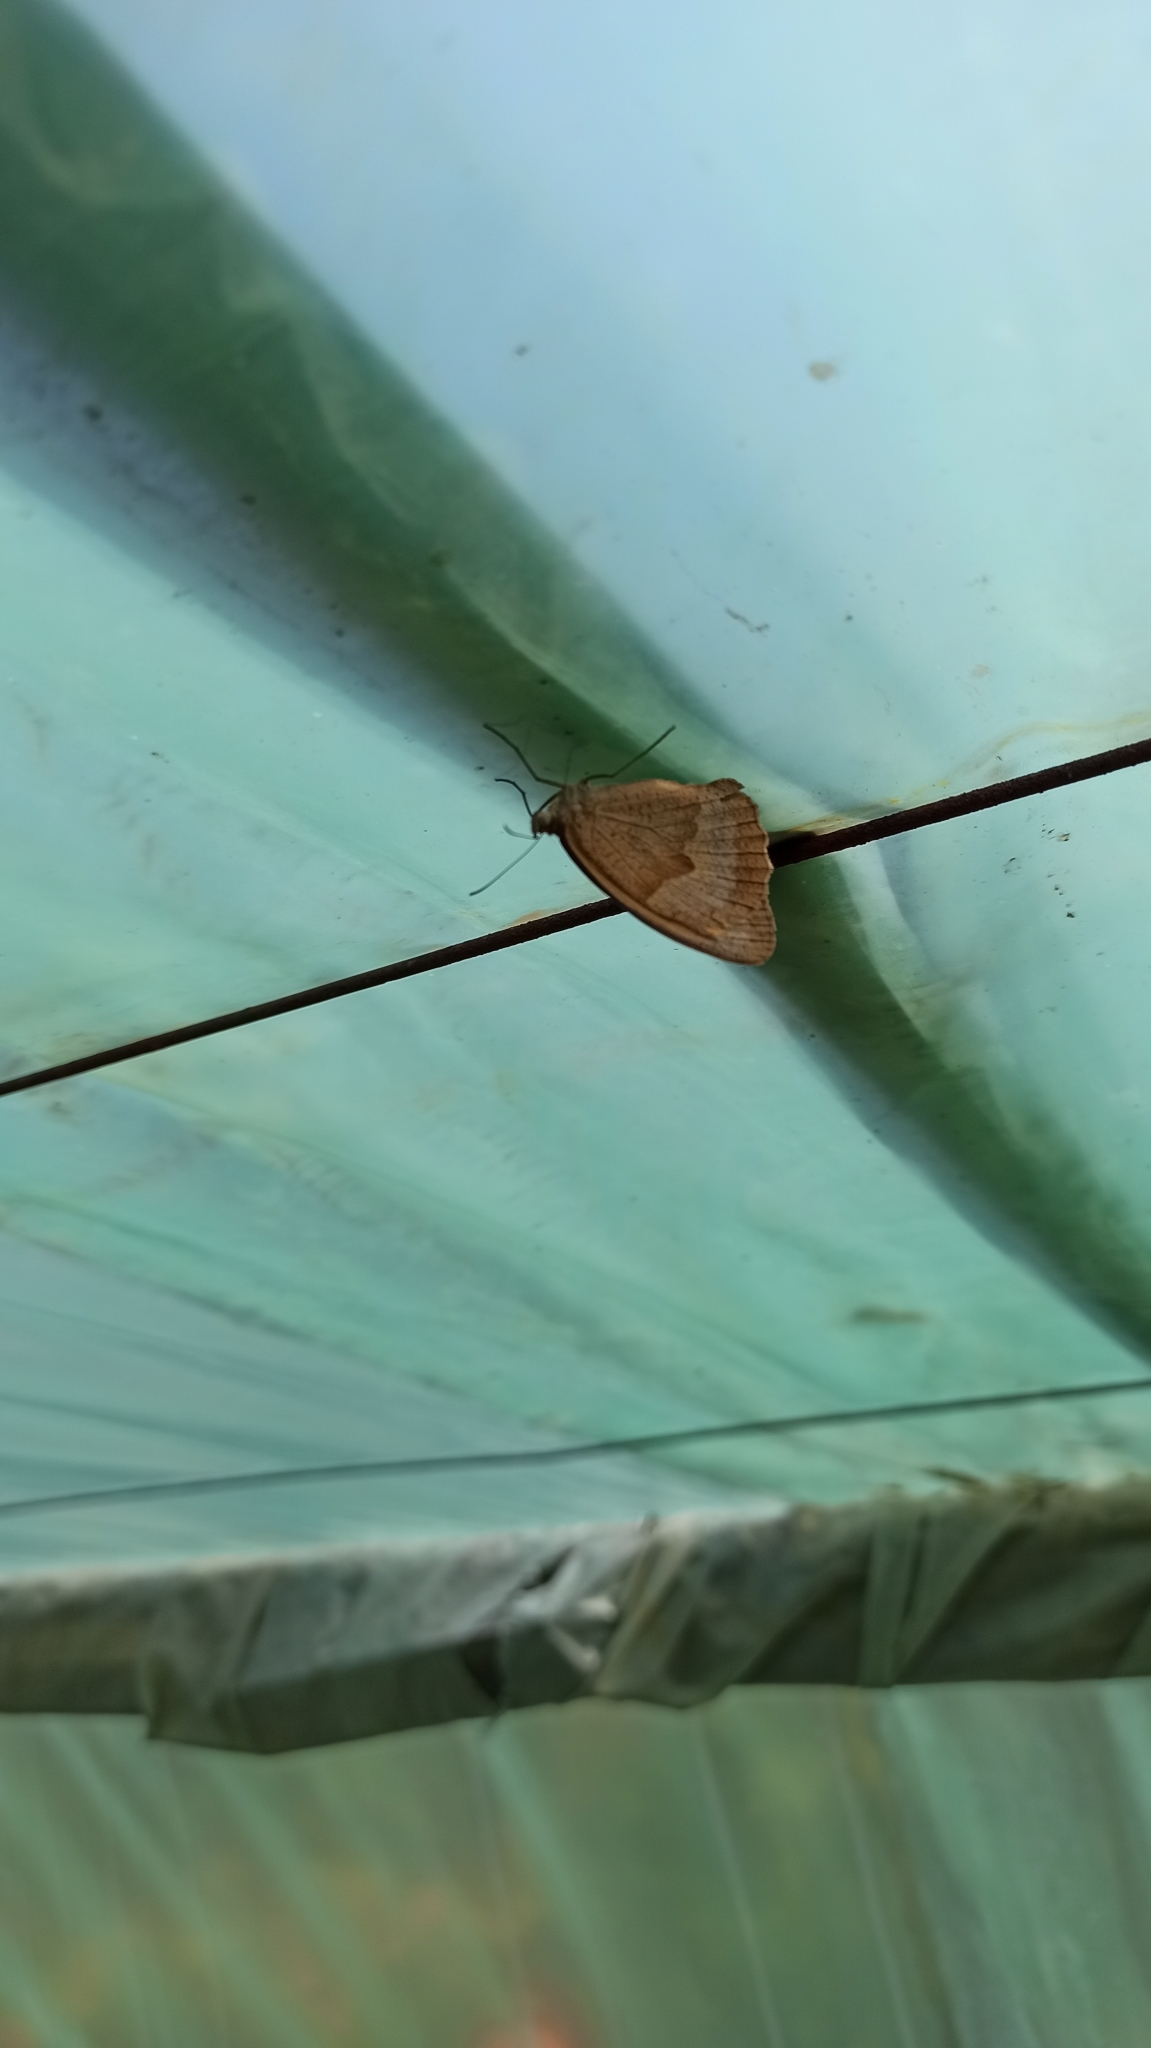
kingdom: Animalia
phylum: Arthropoda
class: Insecta
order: Lepidoptera
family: Nymphalidae
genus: Maniola
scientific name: Maniola jurtina
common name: Meadow brown
